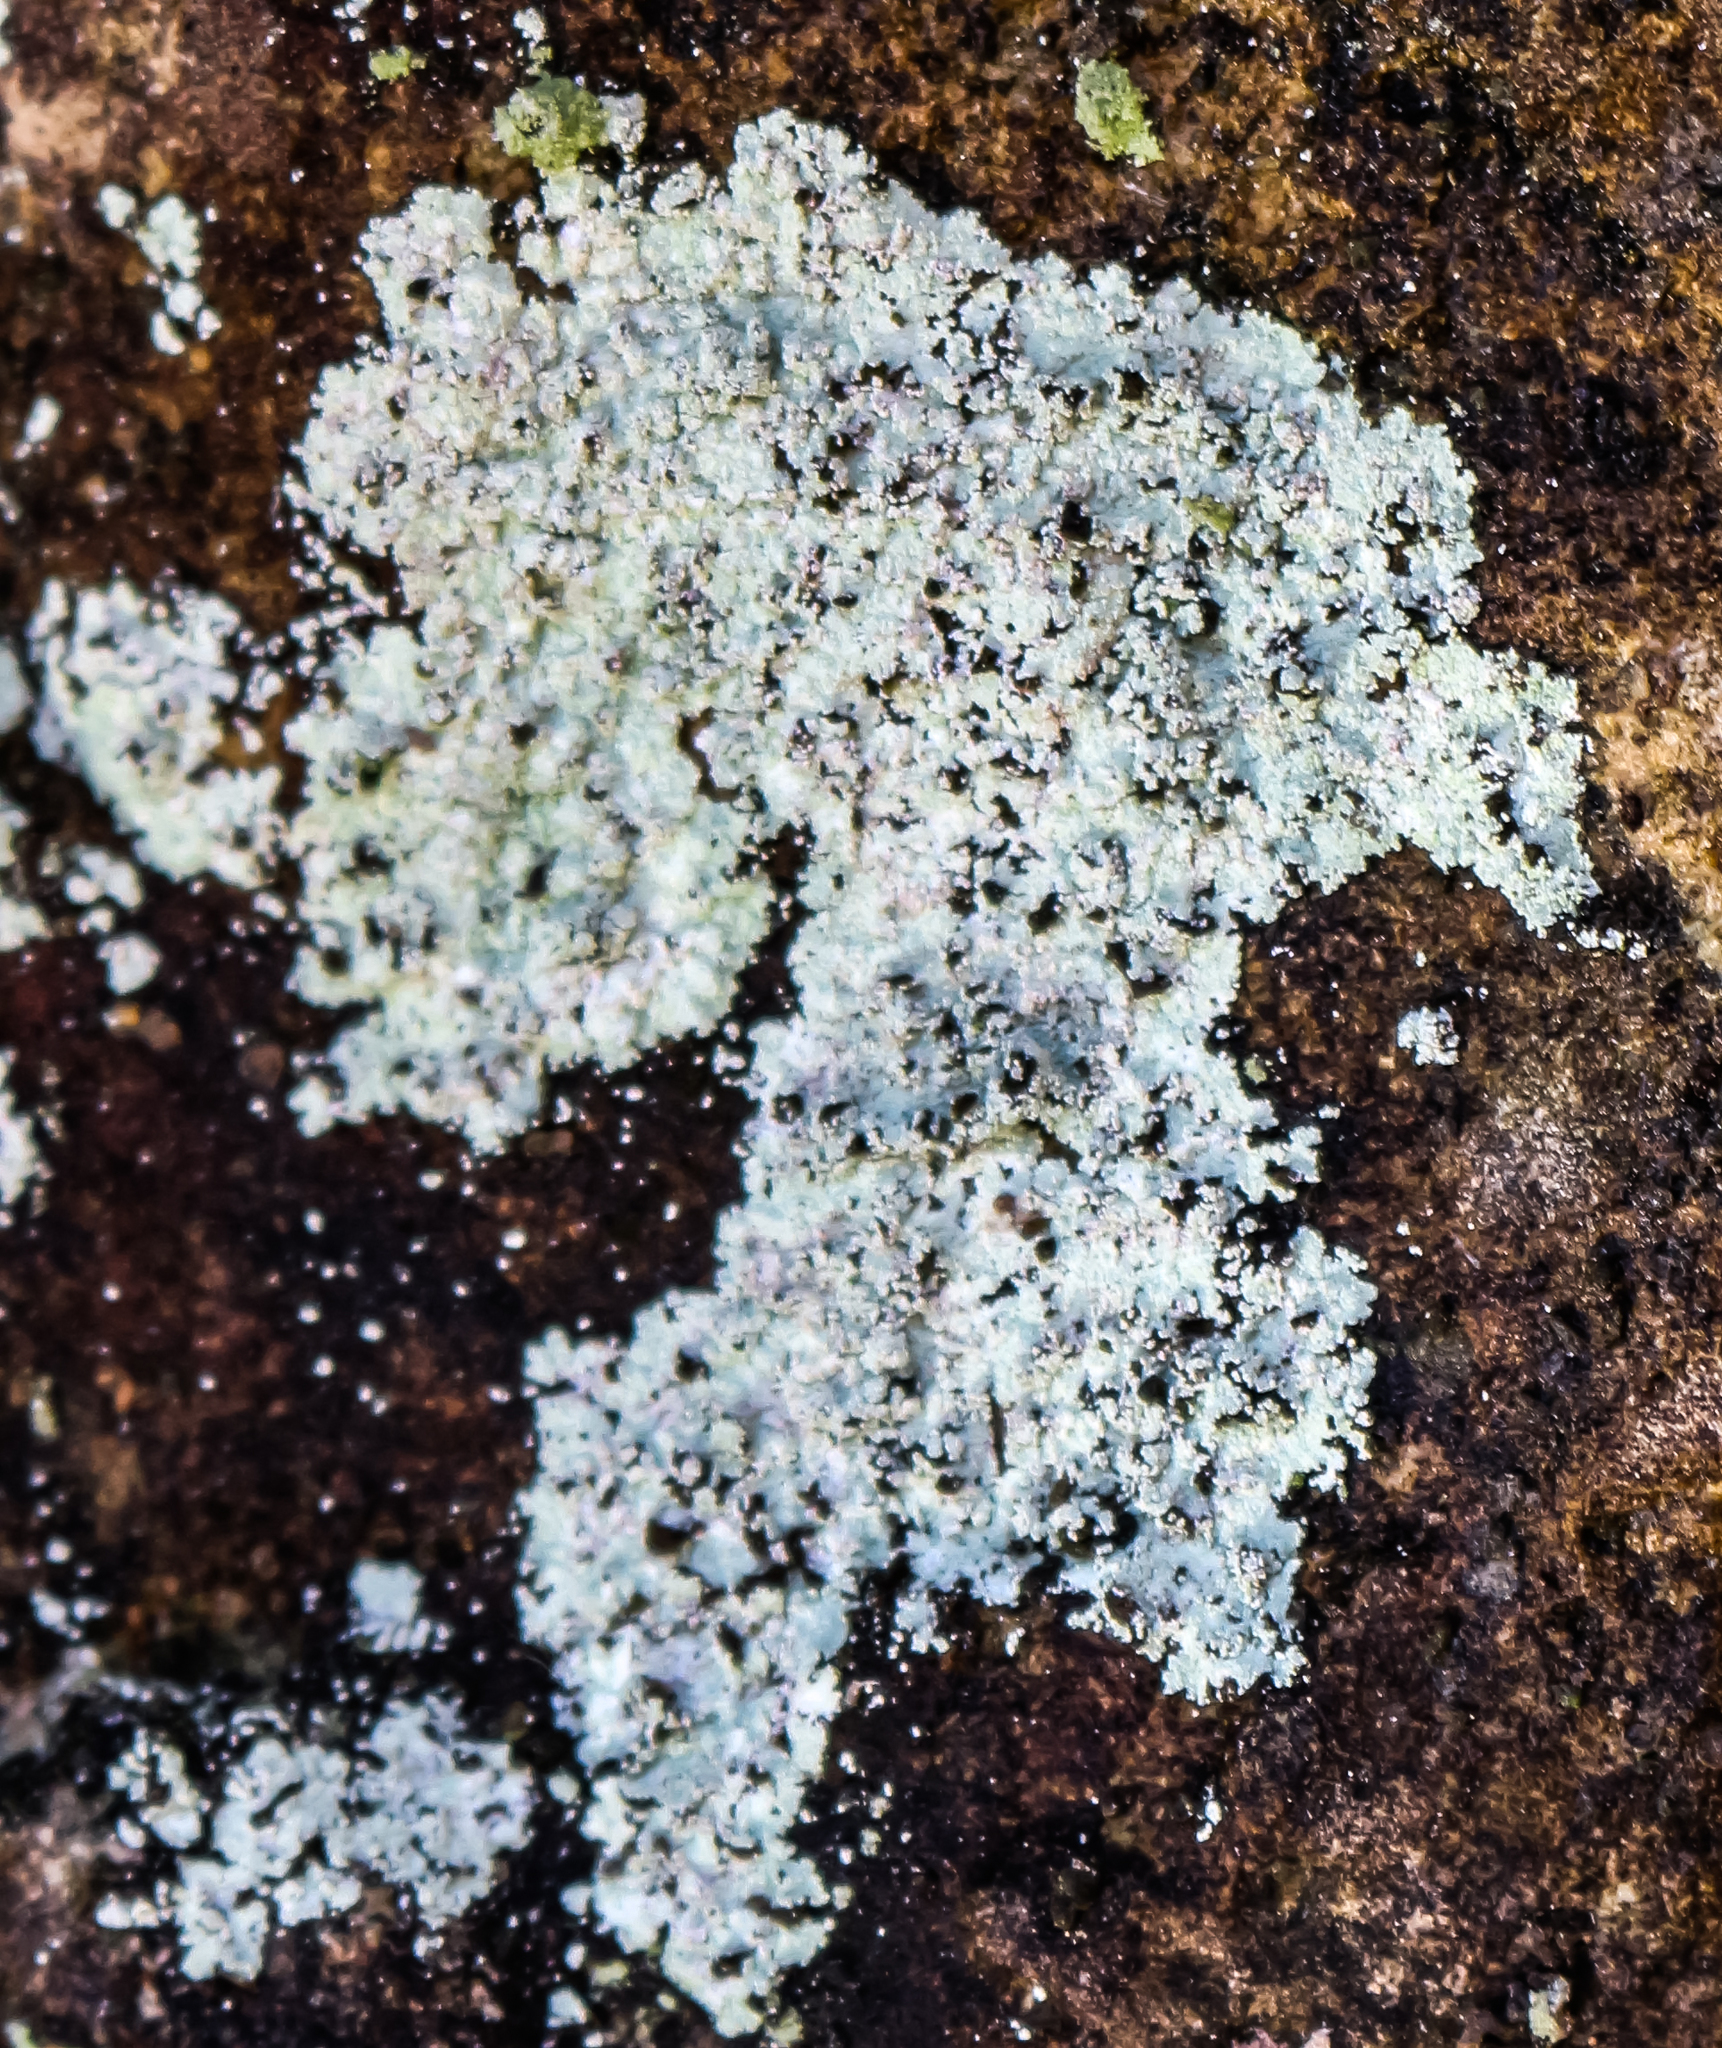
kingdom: Fungi
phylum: Ascomycota
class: Lecanoromycetes
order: Lecanorales
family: Stereocaulaceae
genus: Lepraria
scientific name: Lepraria lobificans
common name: Fluffy dust lichen
